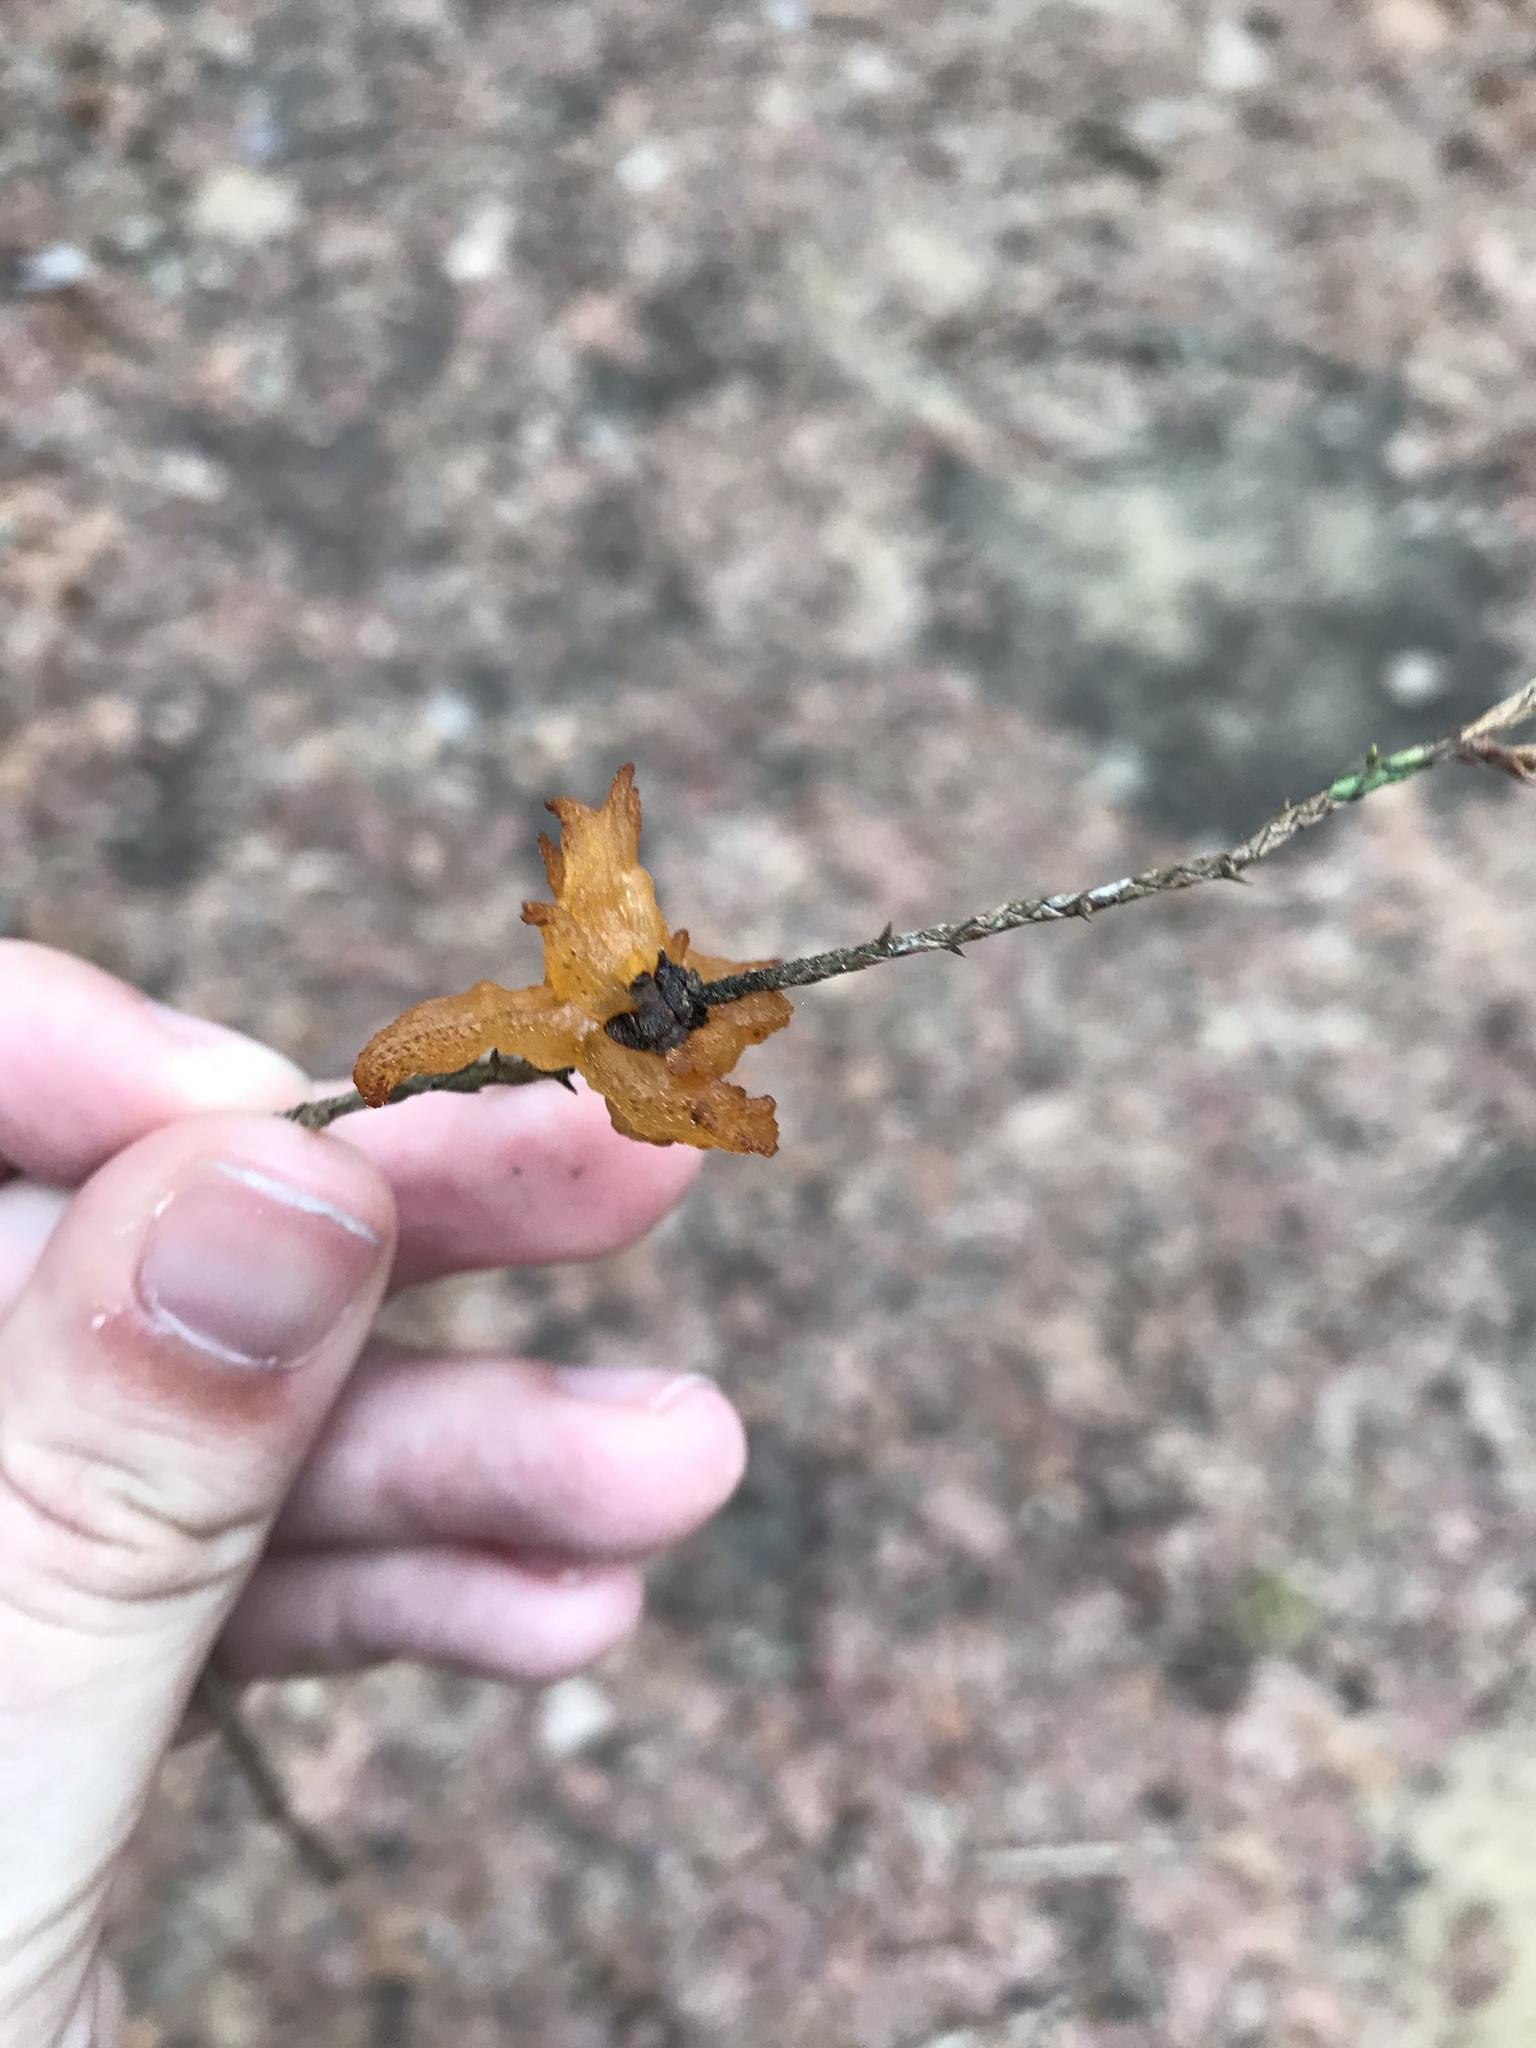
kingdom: Fungi
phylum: Basidiomycota
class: Pucciniomycetes
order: Pucciniales
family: Gymnosporangiaceae
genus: Gymnosporangium
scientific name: Gymnosporangium globosum
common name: Juniper-hawthorn rust
